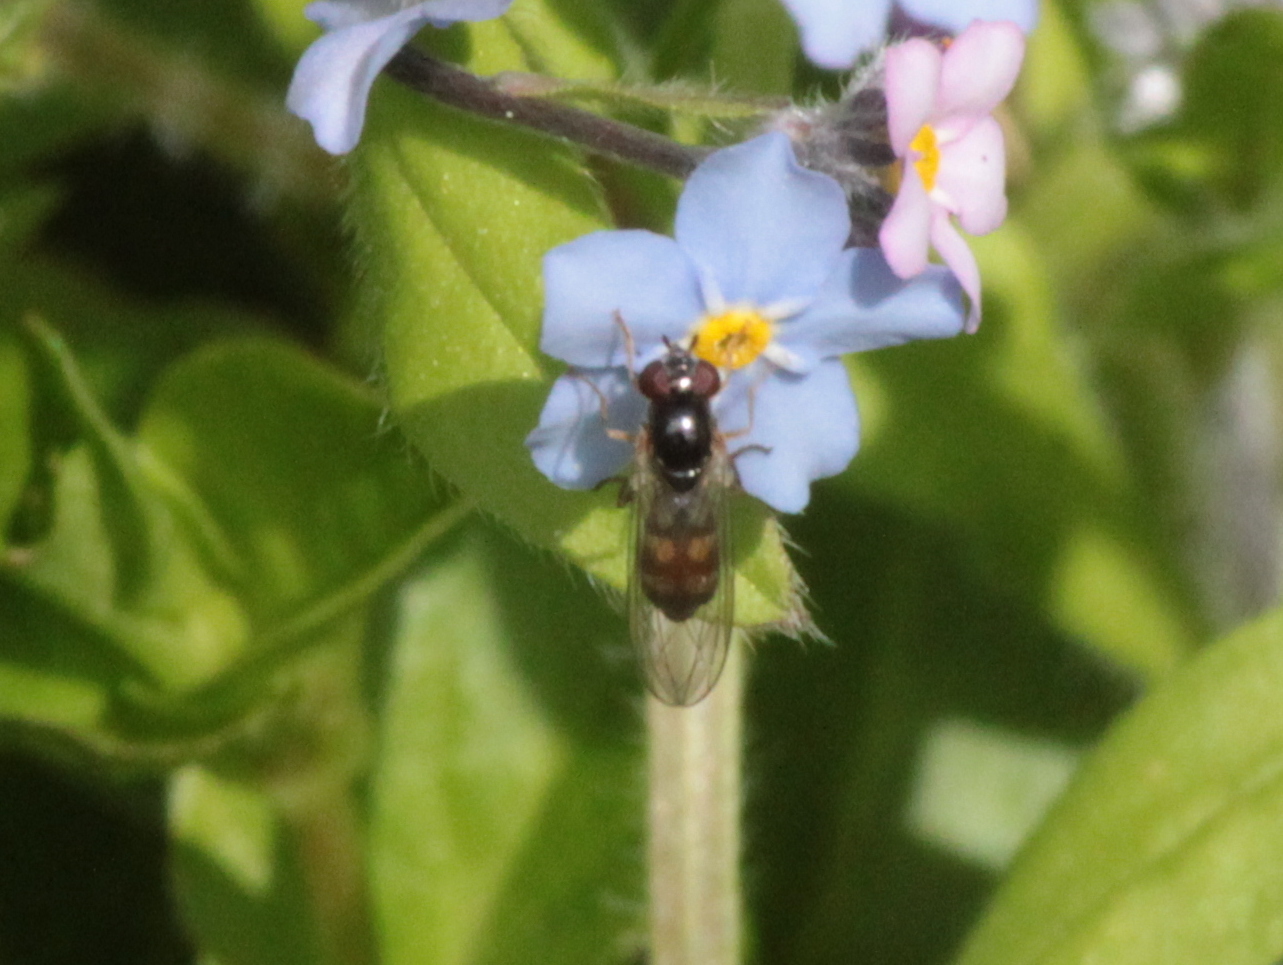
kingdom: Animalia
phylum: Arthropoda
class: Insecta
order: Diptera
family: Syrphidae
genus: Melanostoma
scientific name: Melanostoma mellina
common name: Hover fly
